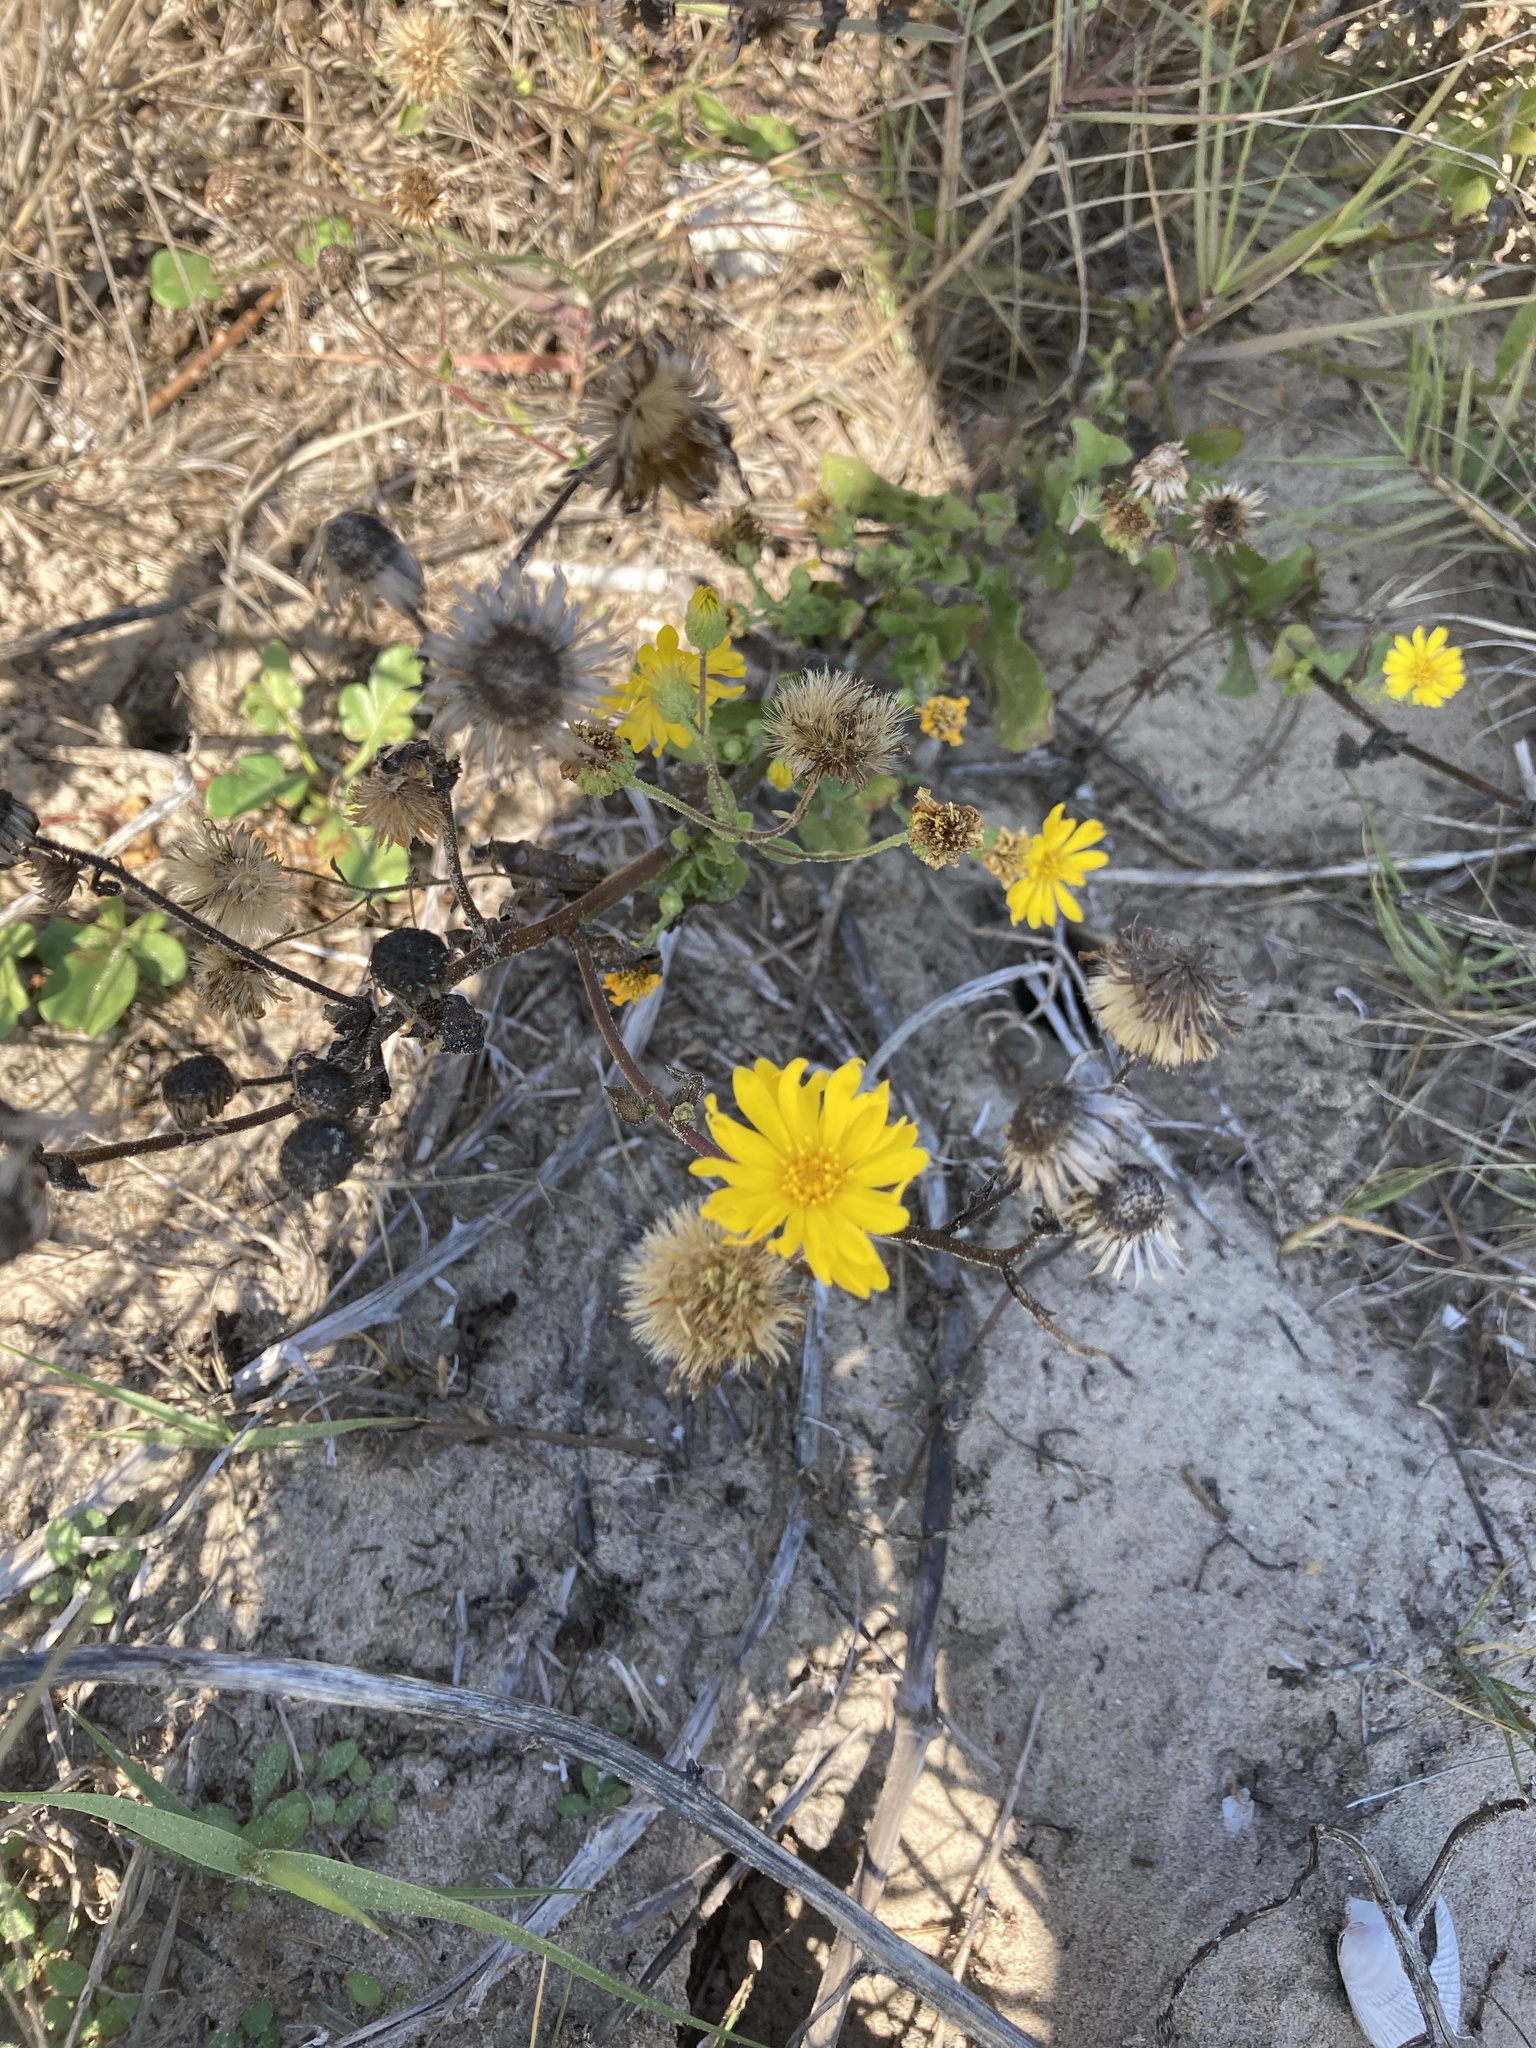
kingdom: Plantae
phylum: Tracheophyta
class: Magnoliopsida
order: Asterales
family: Asteraceae
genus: Heterotheca
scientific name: Heterotheca subaxillaris
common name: Camphorweed
